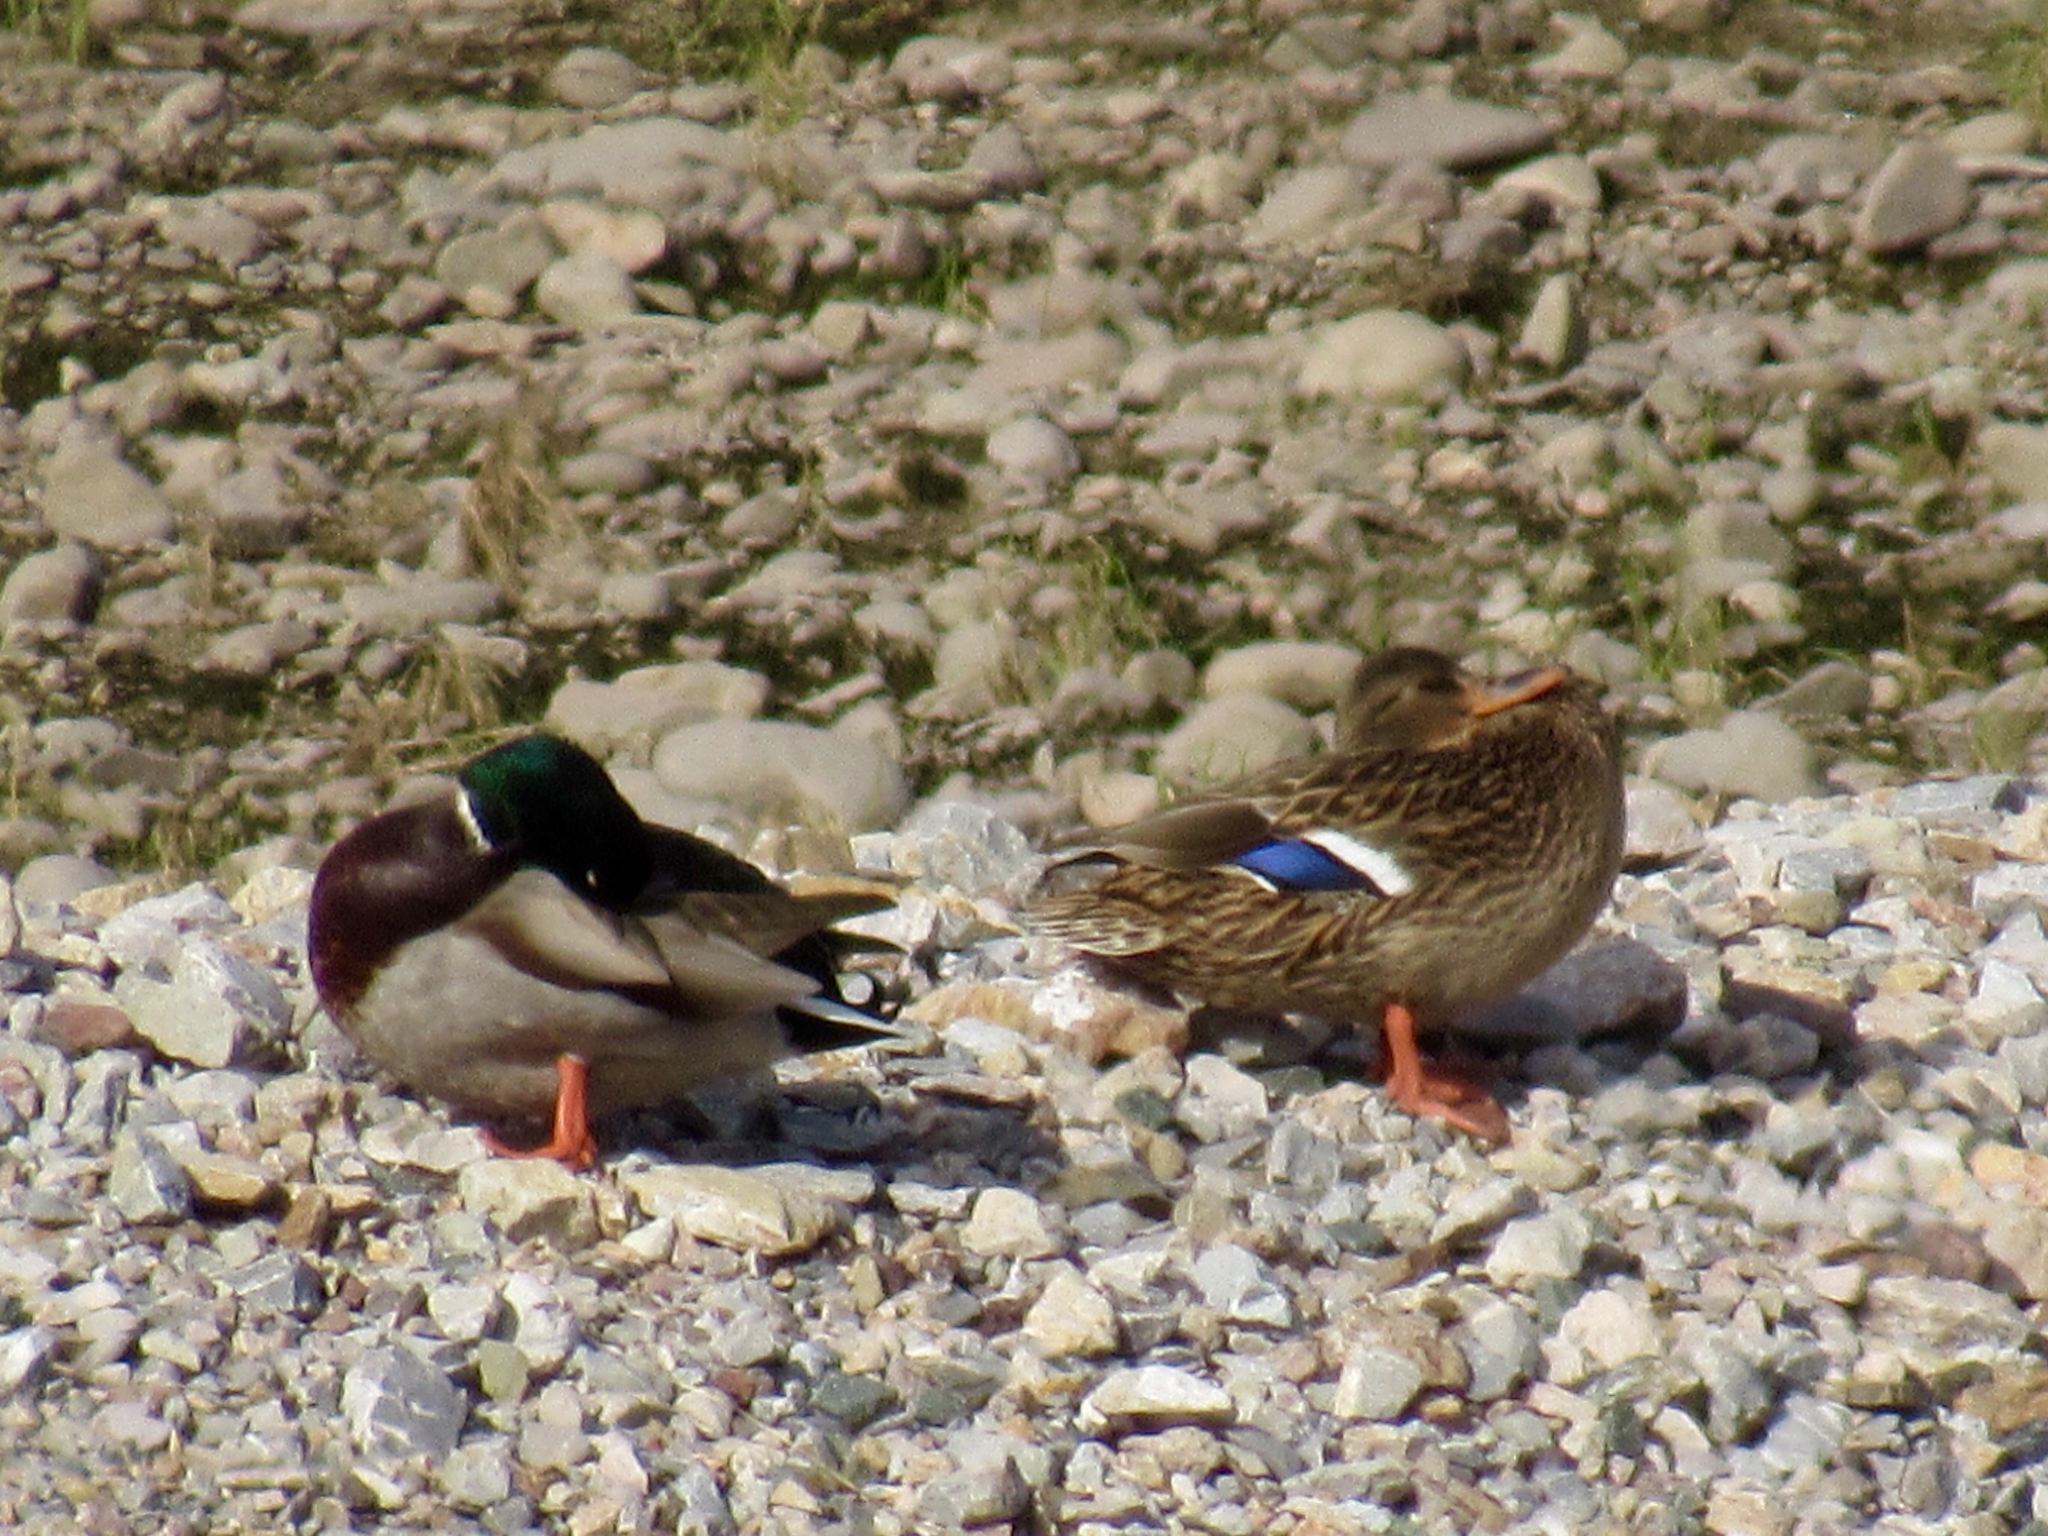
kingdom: Animalia
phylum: Chordata
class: Aves
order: Anseriformes
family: Anatidae
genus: Anas
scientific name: Anas platyrhynchos
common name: Mallard
